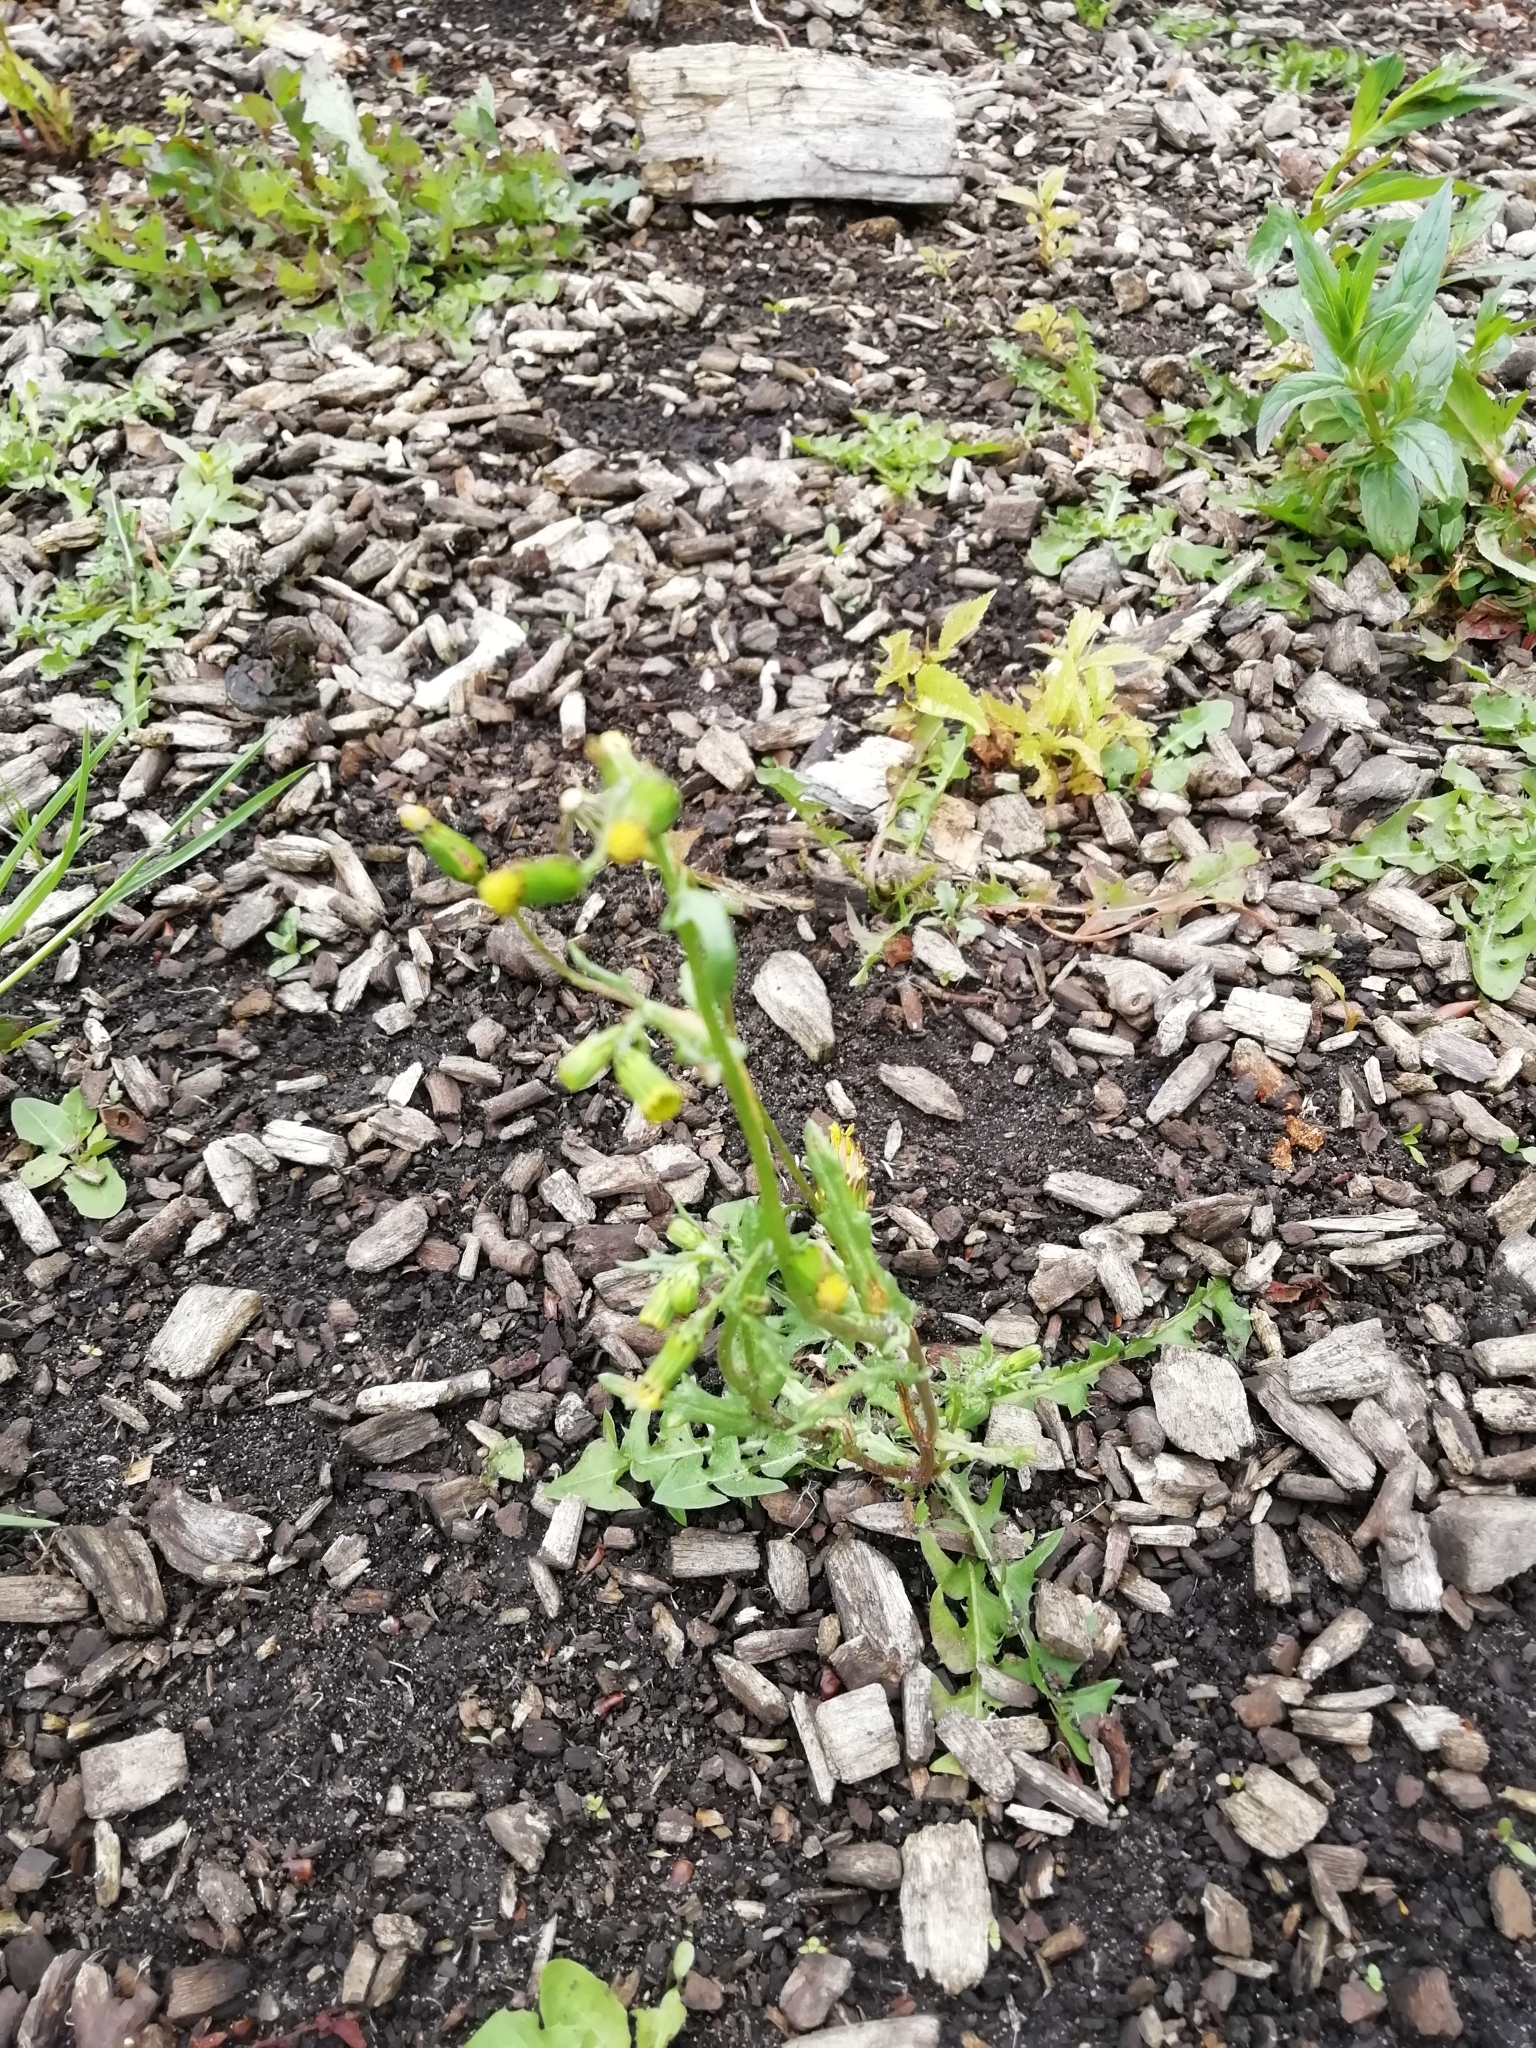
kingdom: Plantae
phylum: Tracheophyta
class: Magnoliopsida
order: Asterales
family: Asteraceae
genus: Senecio
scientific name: Senecio vulgaris
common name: Old-man-in-the-spring
